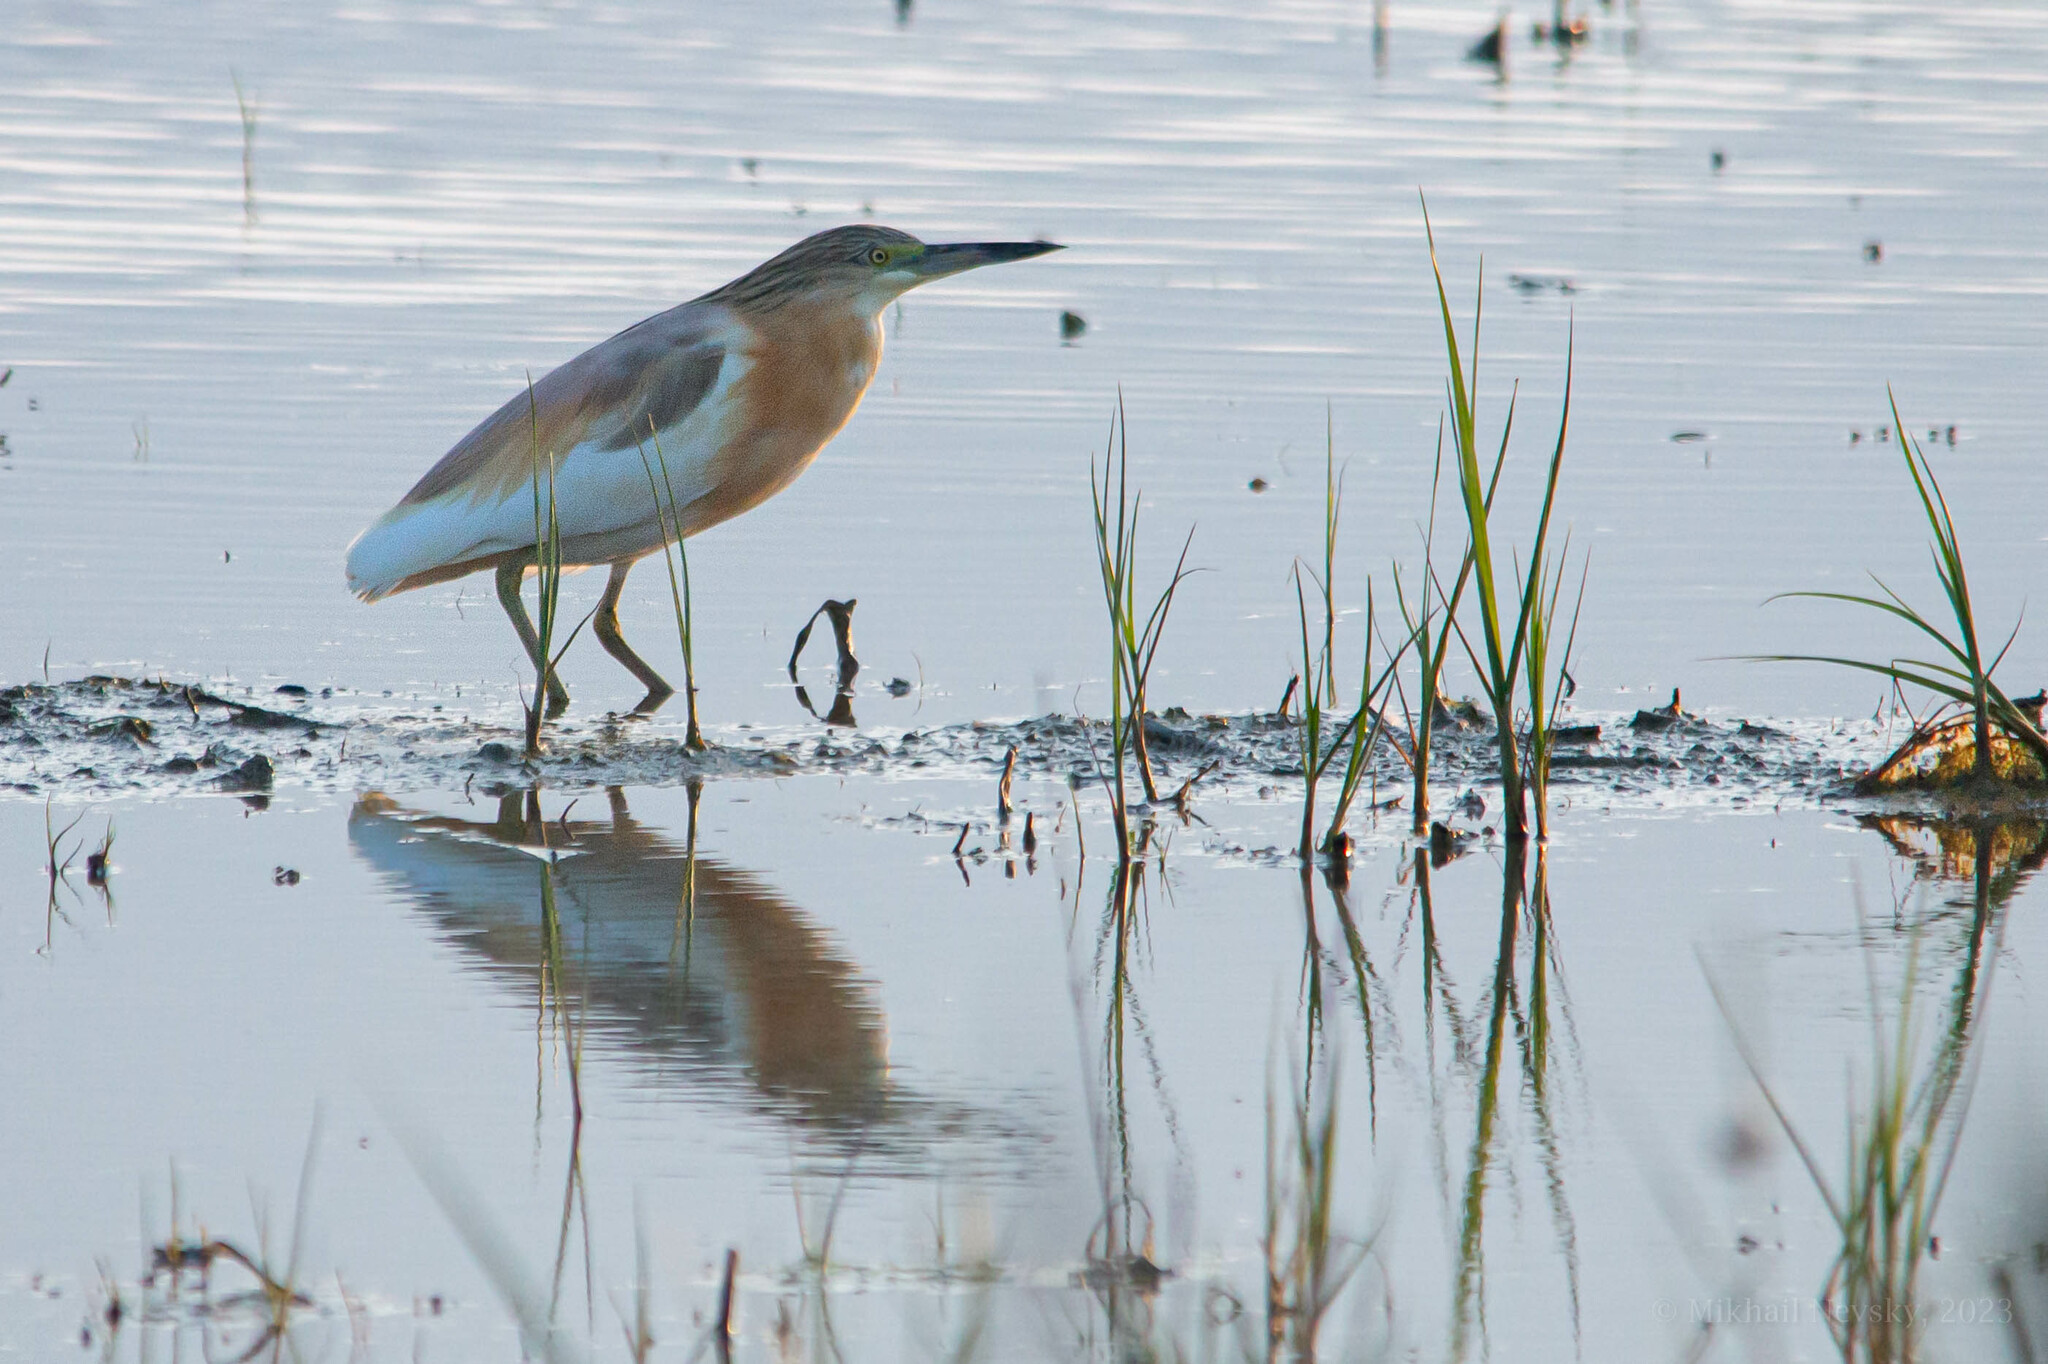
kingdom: Animalia
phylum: Chordata
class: Aves
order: Pelecaniformes
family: Ardeidae
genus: Ardeola
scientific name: Ardeola ralloides
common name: Squacco heron
